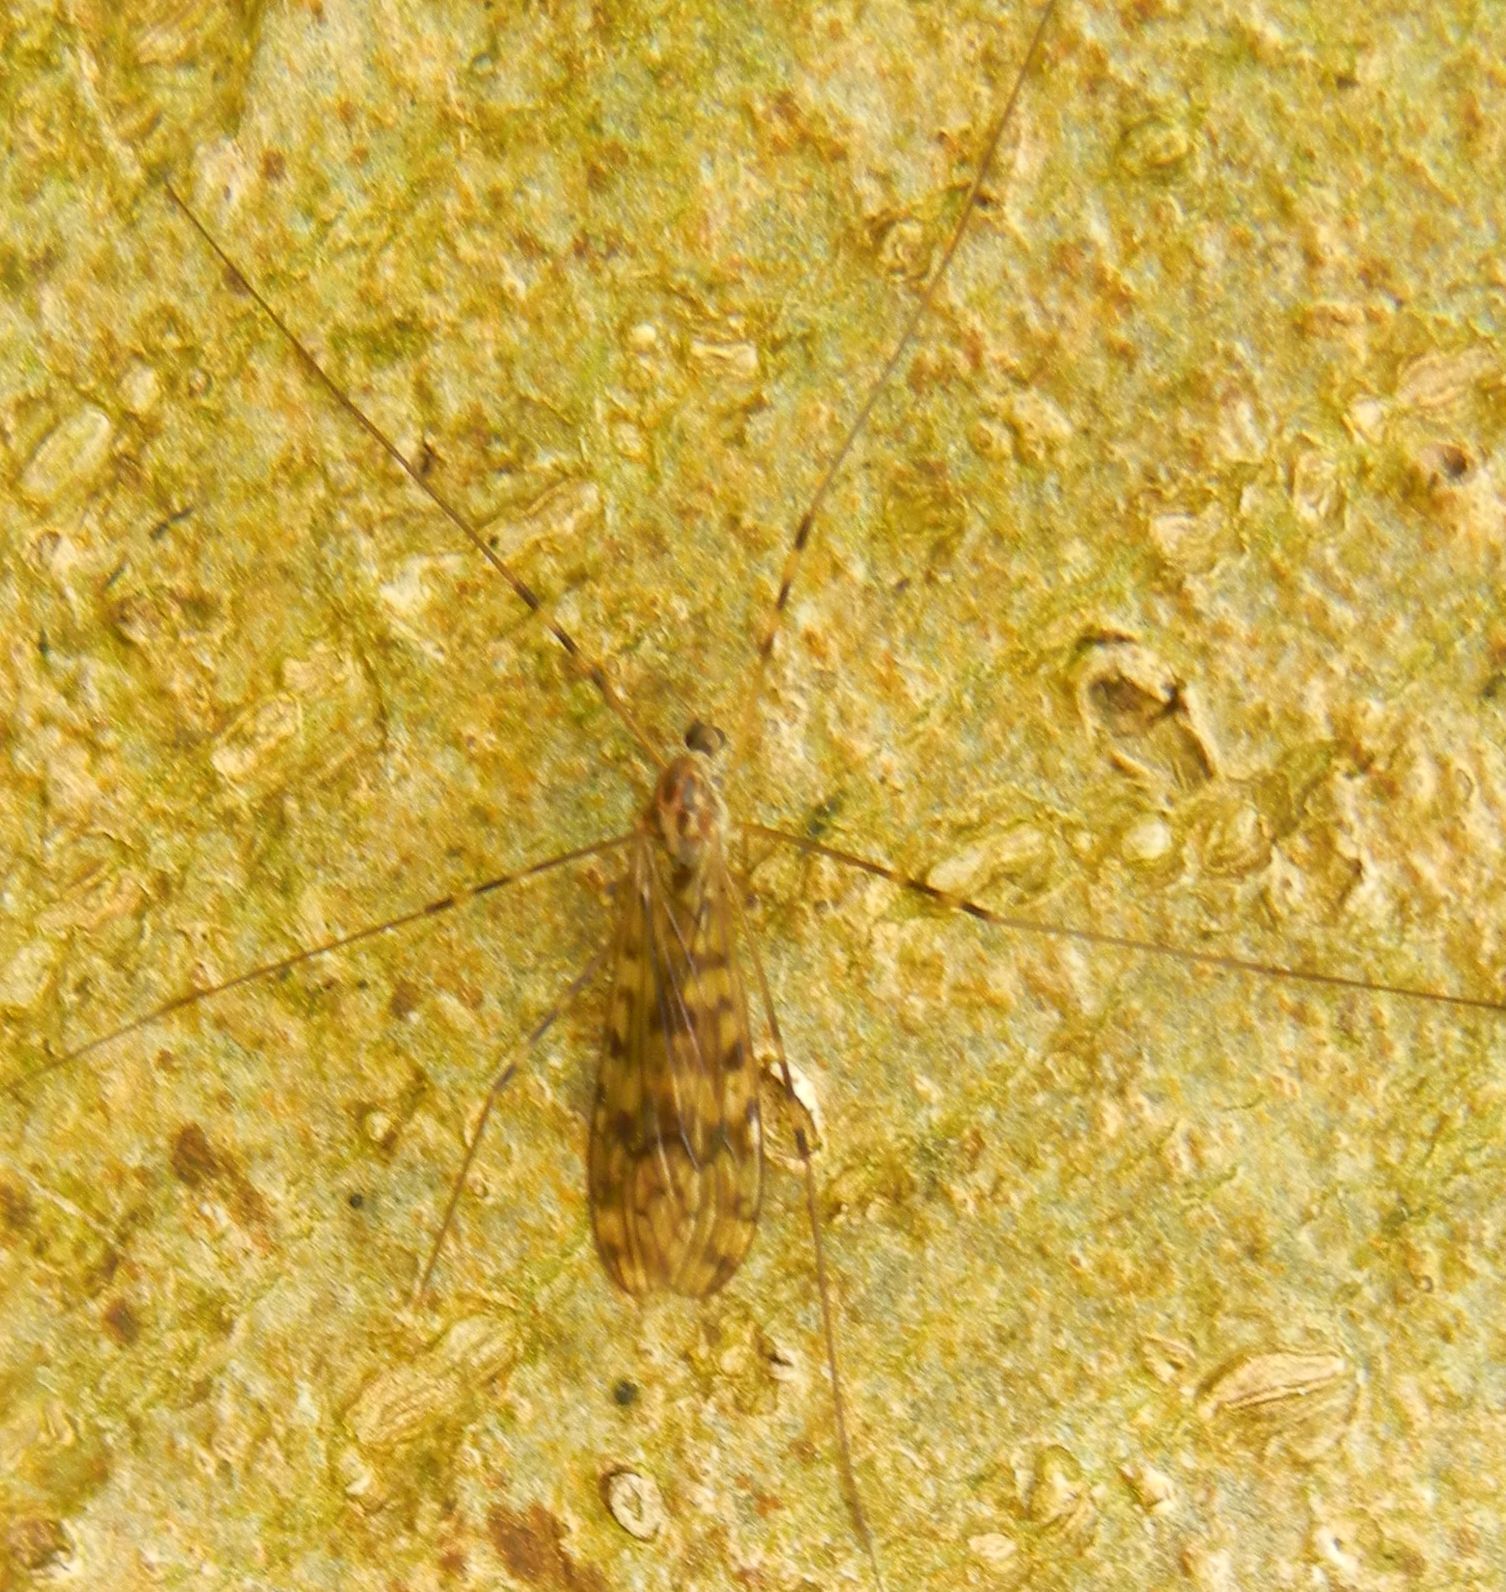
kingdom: Animalia
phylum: Arthropoda
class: Insecta
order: Diptera
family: Limoniidae
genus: Limonia
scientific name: Limonia nubeculosa
